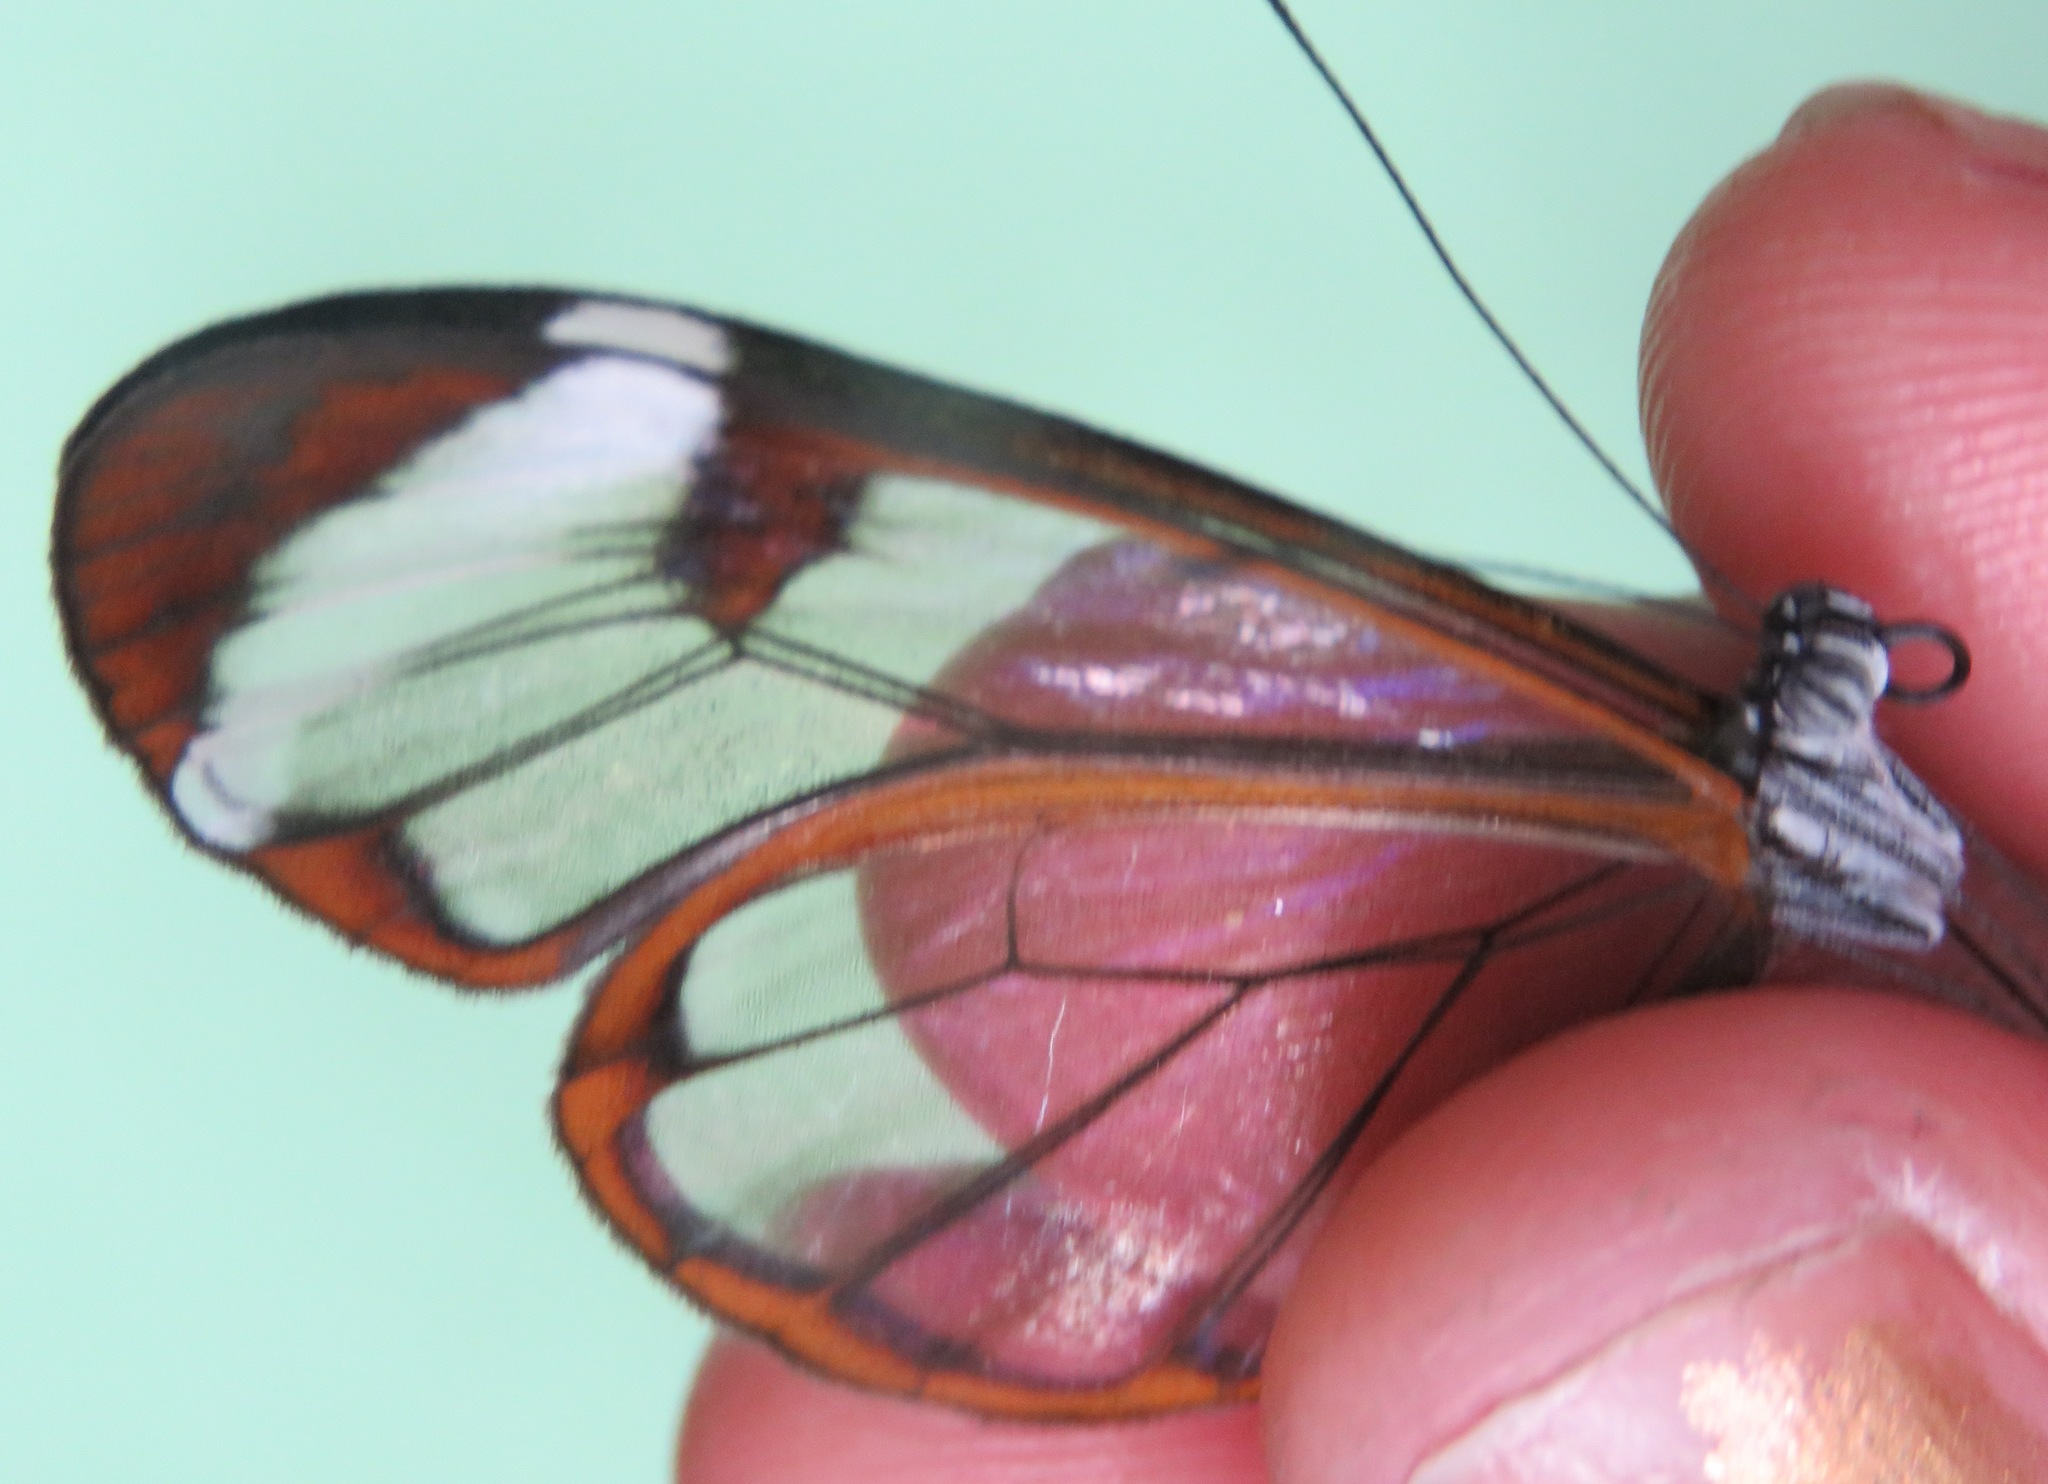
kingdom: Animalia
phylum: Arthropoda
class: Insecta
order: Lepidoptera
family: Nymphalidae
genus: Greta
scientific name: Greta morgane
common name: Thick-tipped greta
